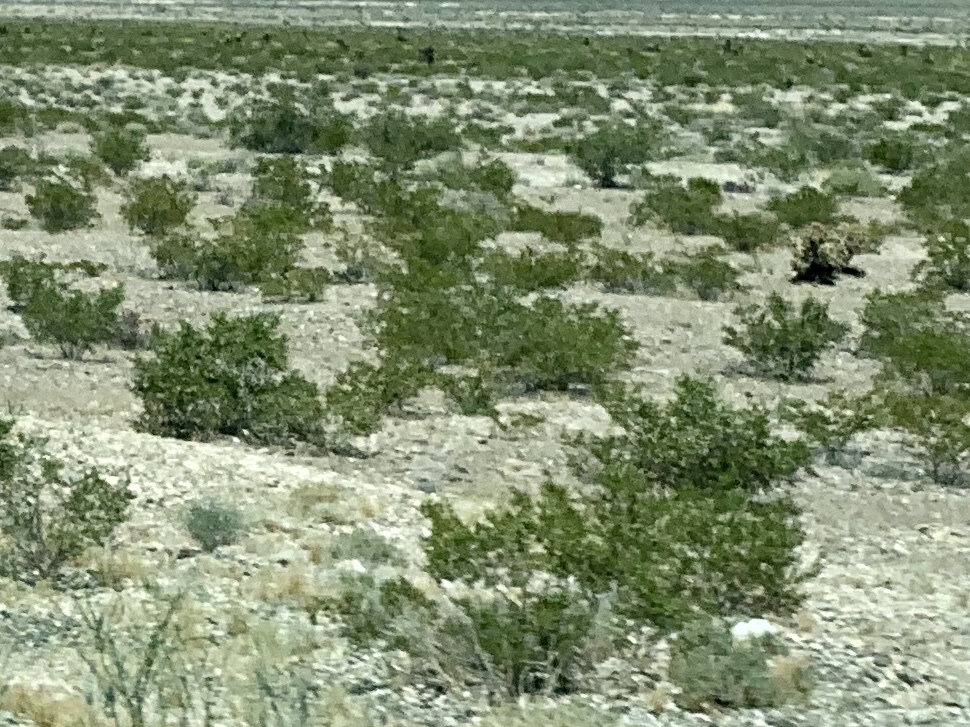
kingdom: Plantae
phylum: Tracheophyta
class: Magnoliopsida
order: Zygophyllales
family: Zygophyllaceae
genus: Larrea
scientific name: Larrea tridentata
